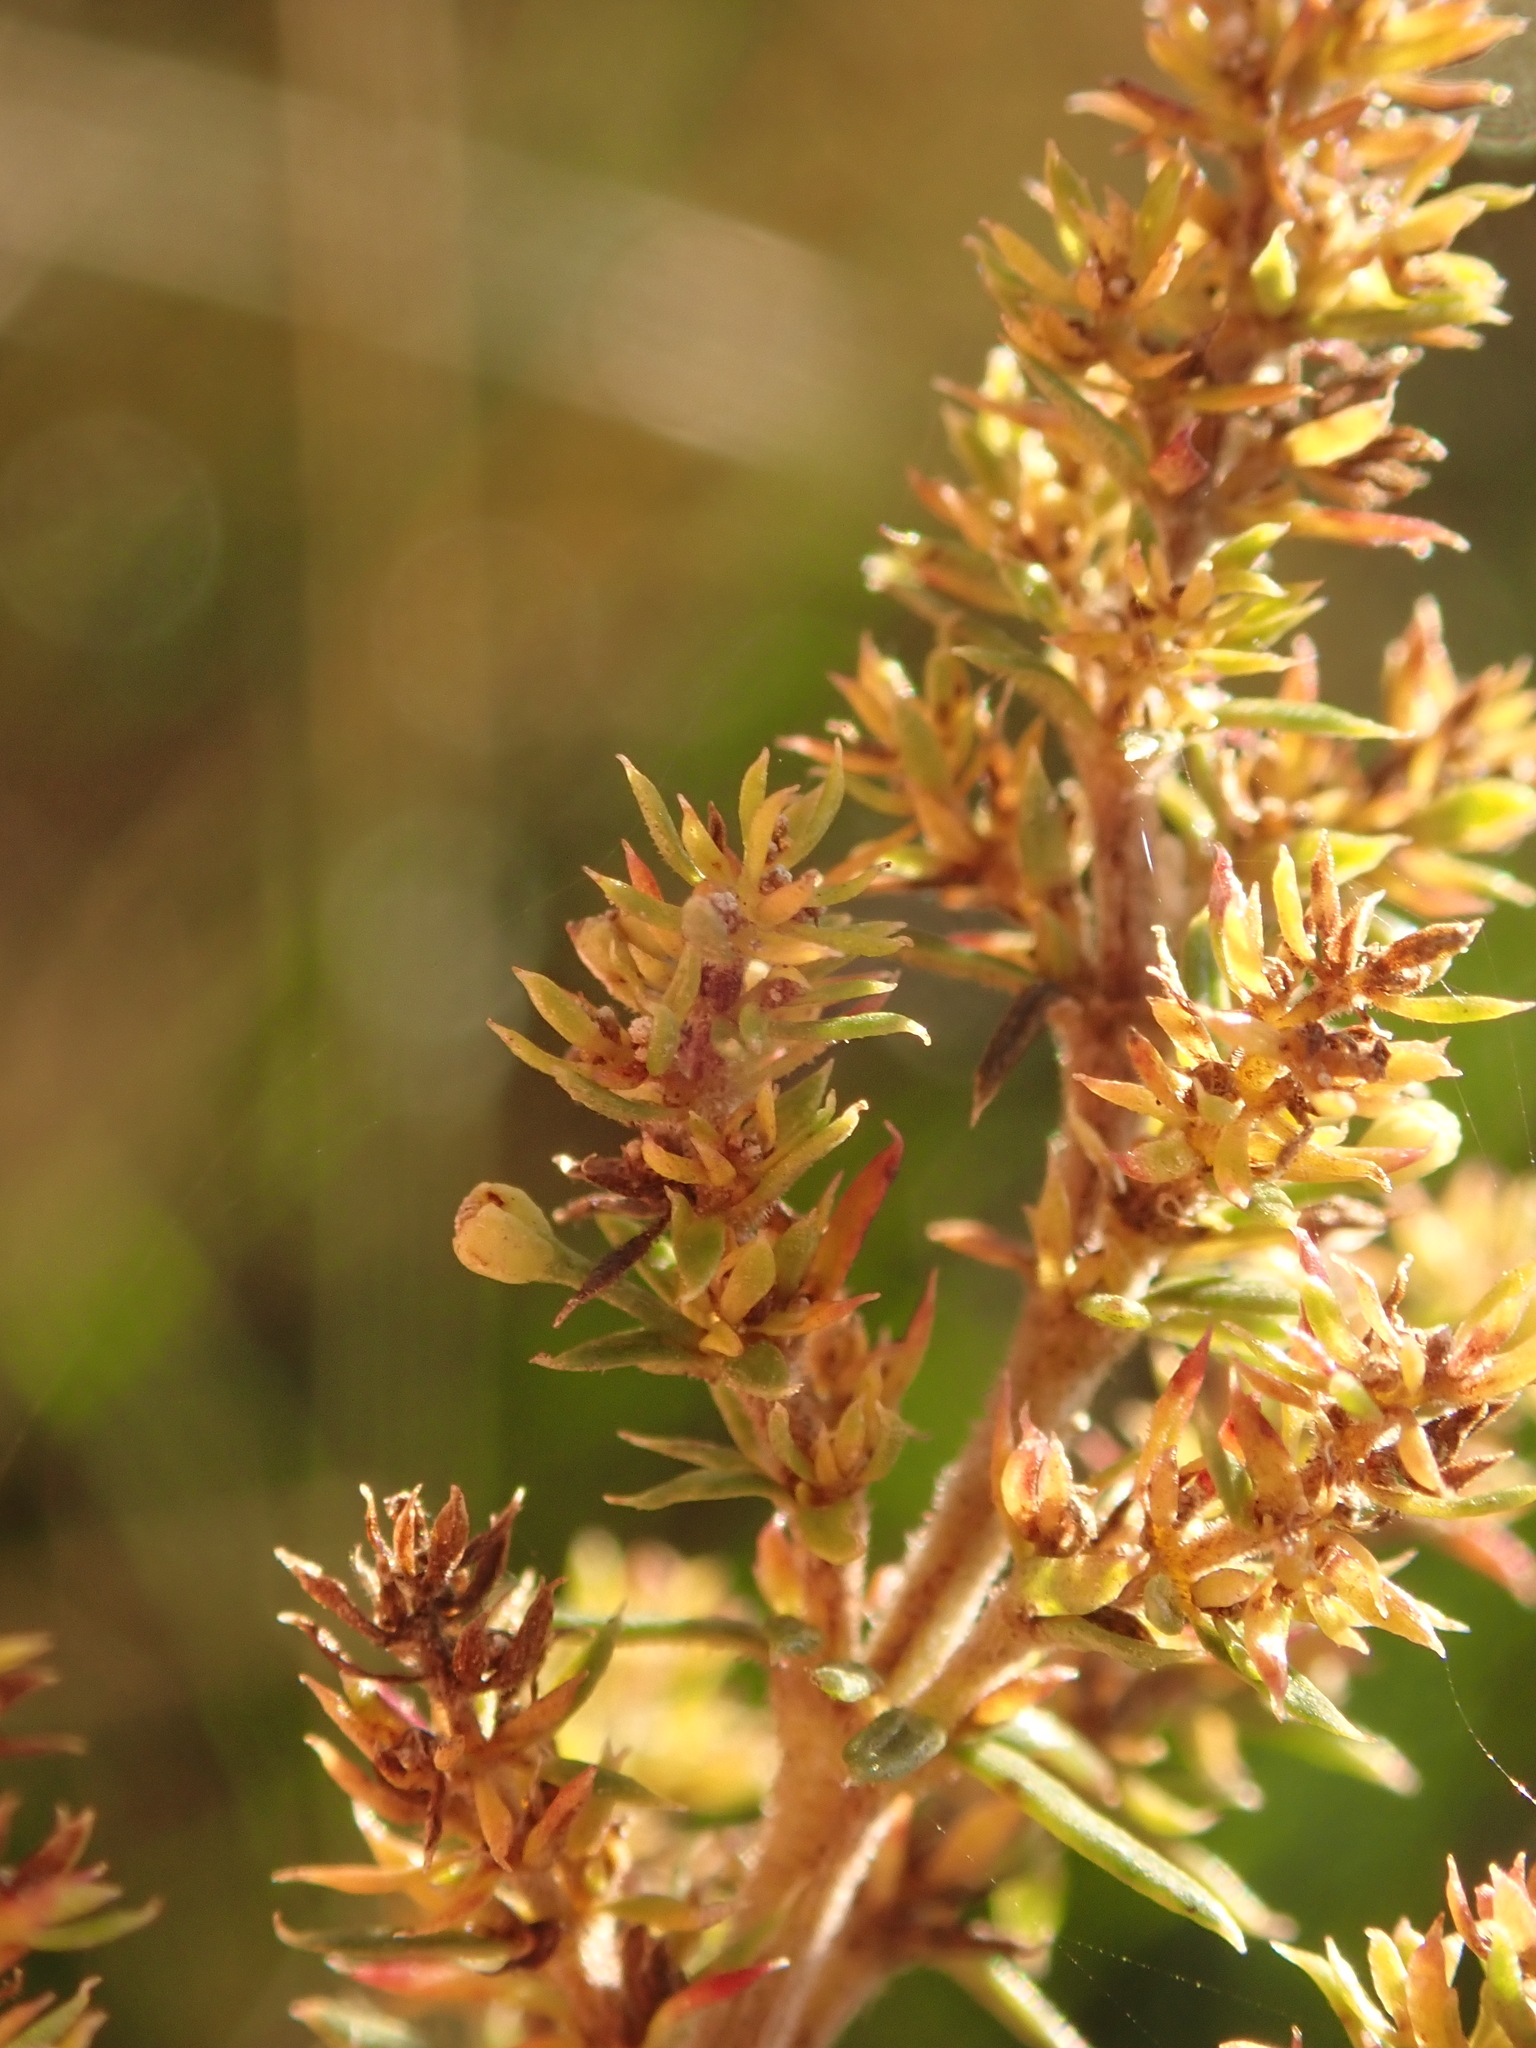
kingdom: Plantae
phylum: Tracheophyta
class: Magnoliopsida
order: Gentianales
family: Rubiaceae
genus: Galium
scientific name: Galium verum
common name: Lady's bedstraw
